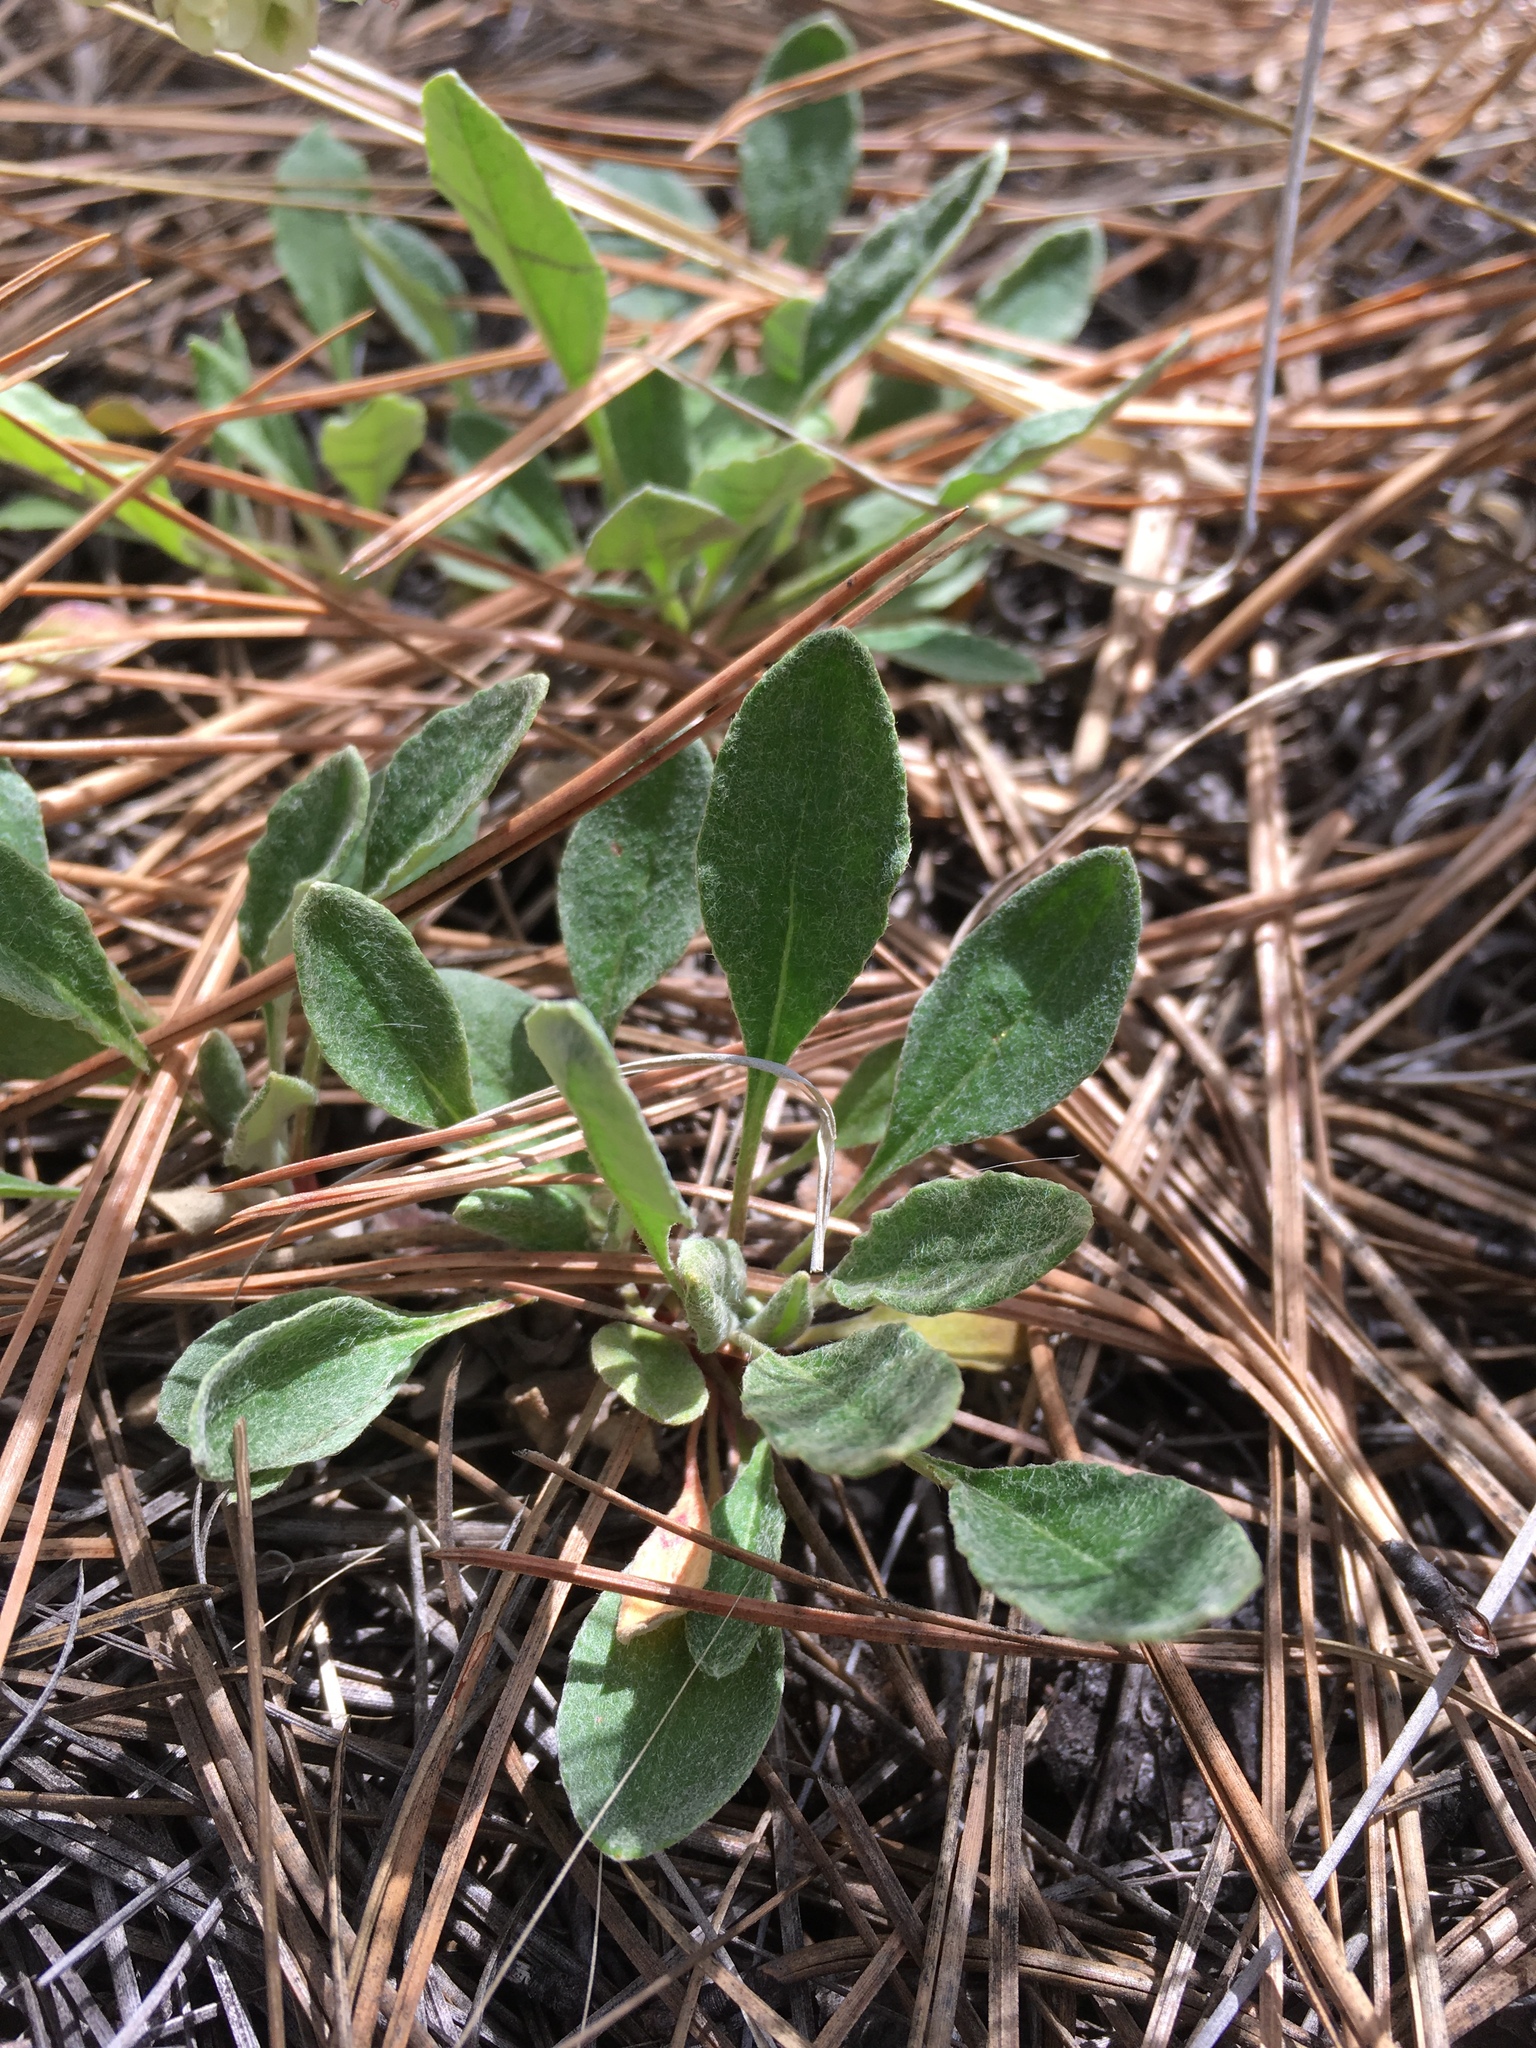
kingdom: Plantae
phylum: Tracheophyta
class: Magnoliopsida
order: Caryophyllales
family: Polygonaceae
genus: Eriogonum
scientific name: Eriogonum jamesii
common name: Antelope-sage
